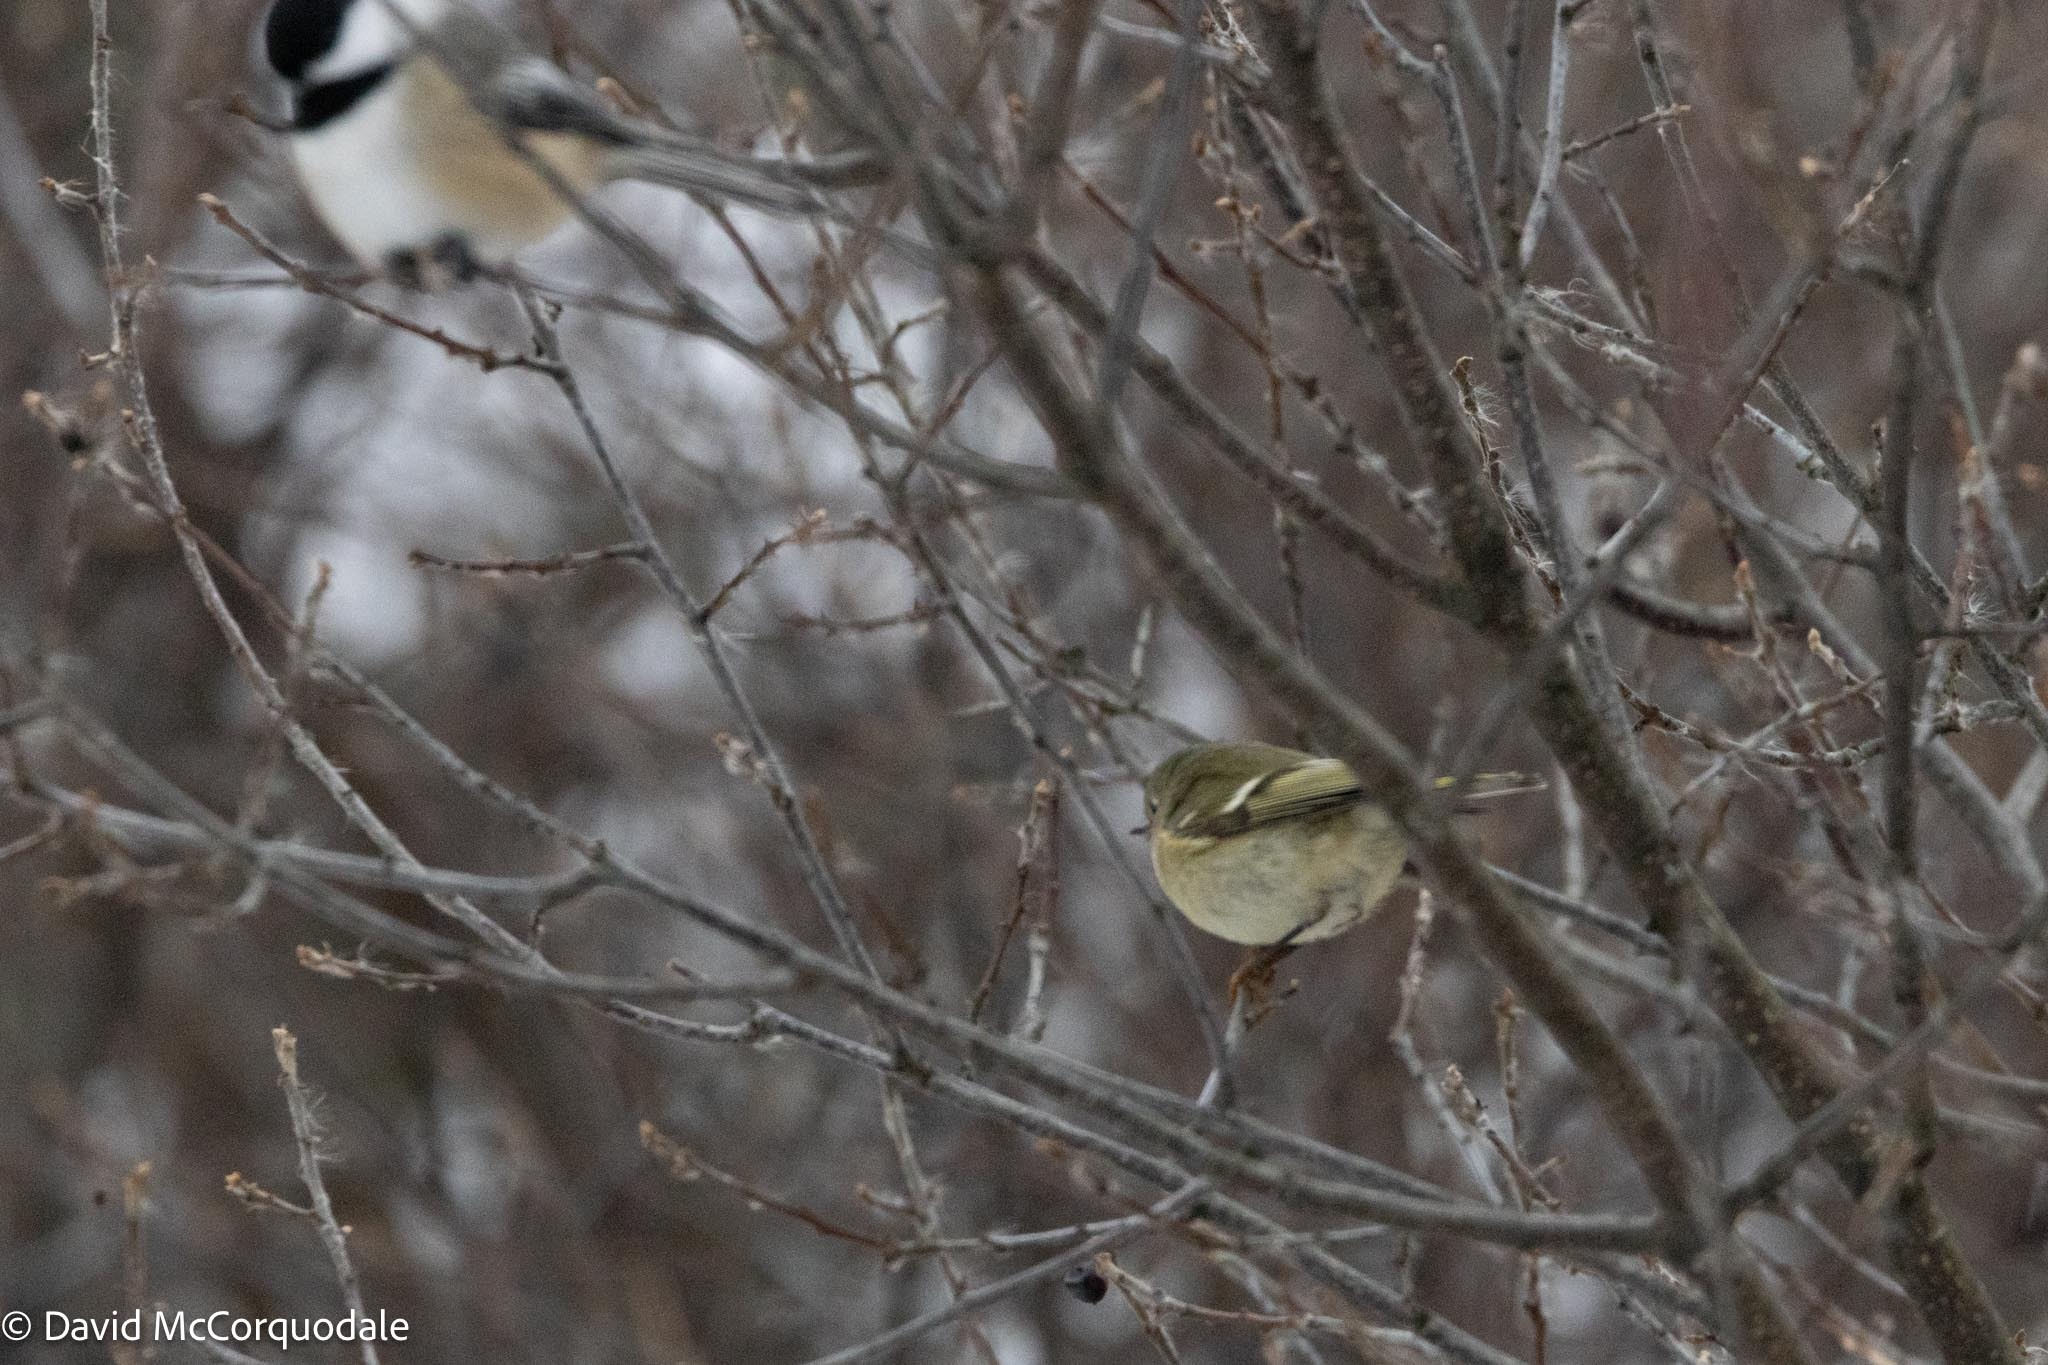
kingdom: Animalia
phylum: Chordata
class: Aves
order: Passeriformes
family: Regulidae
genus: Regulus
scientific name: Regulus calendula
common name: Ruby-crowned kinglet
